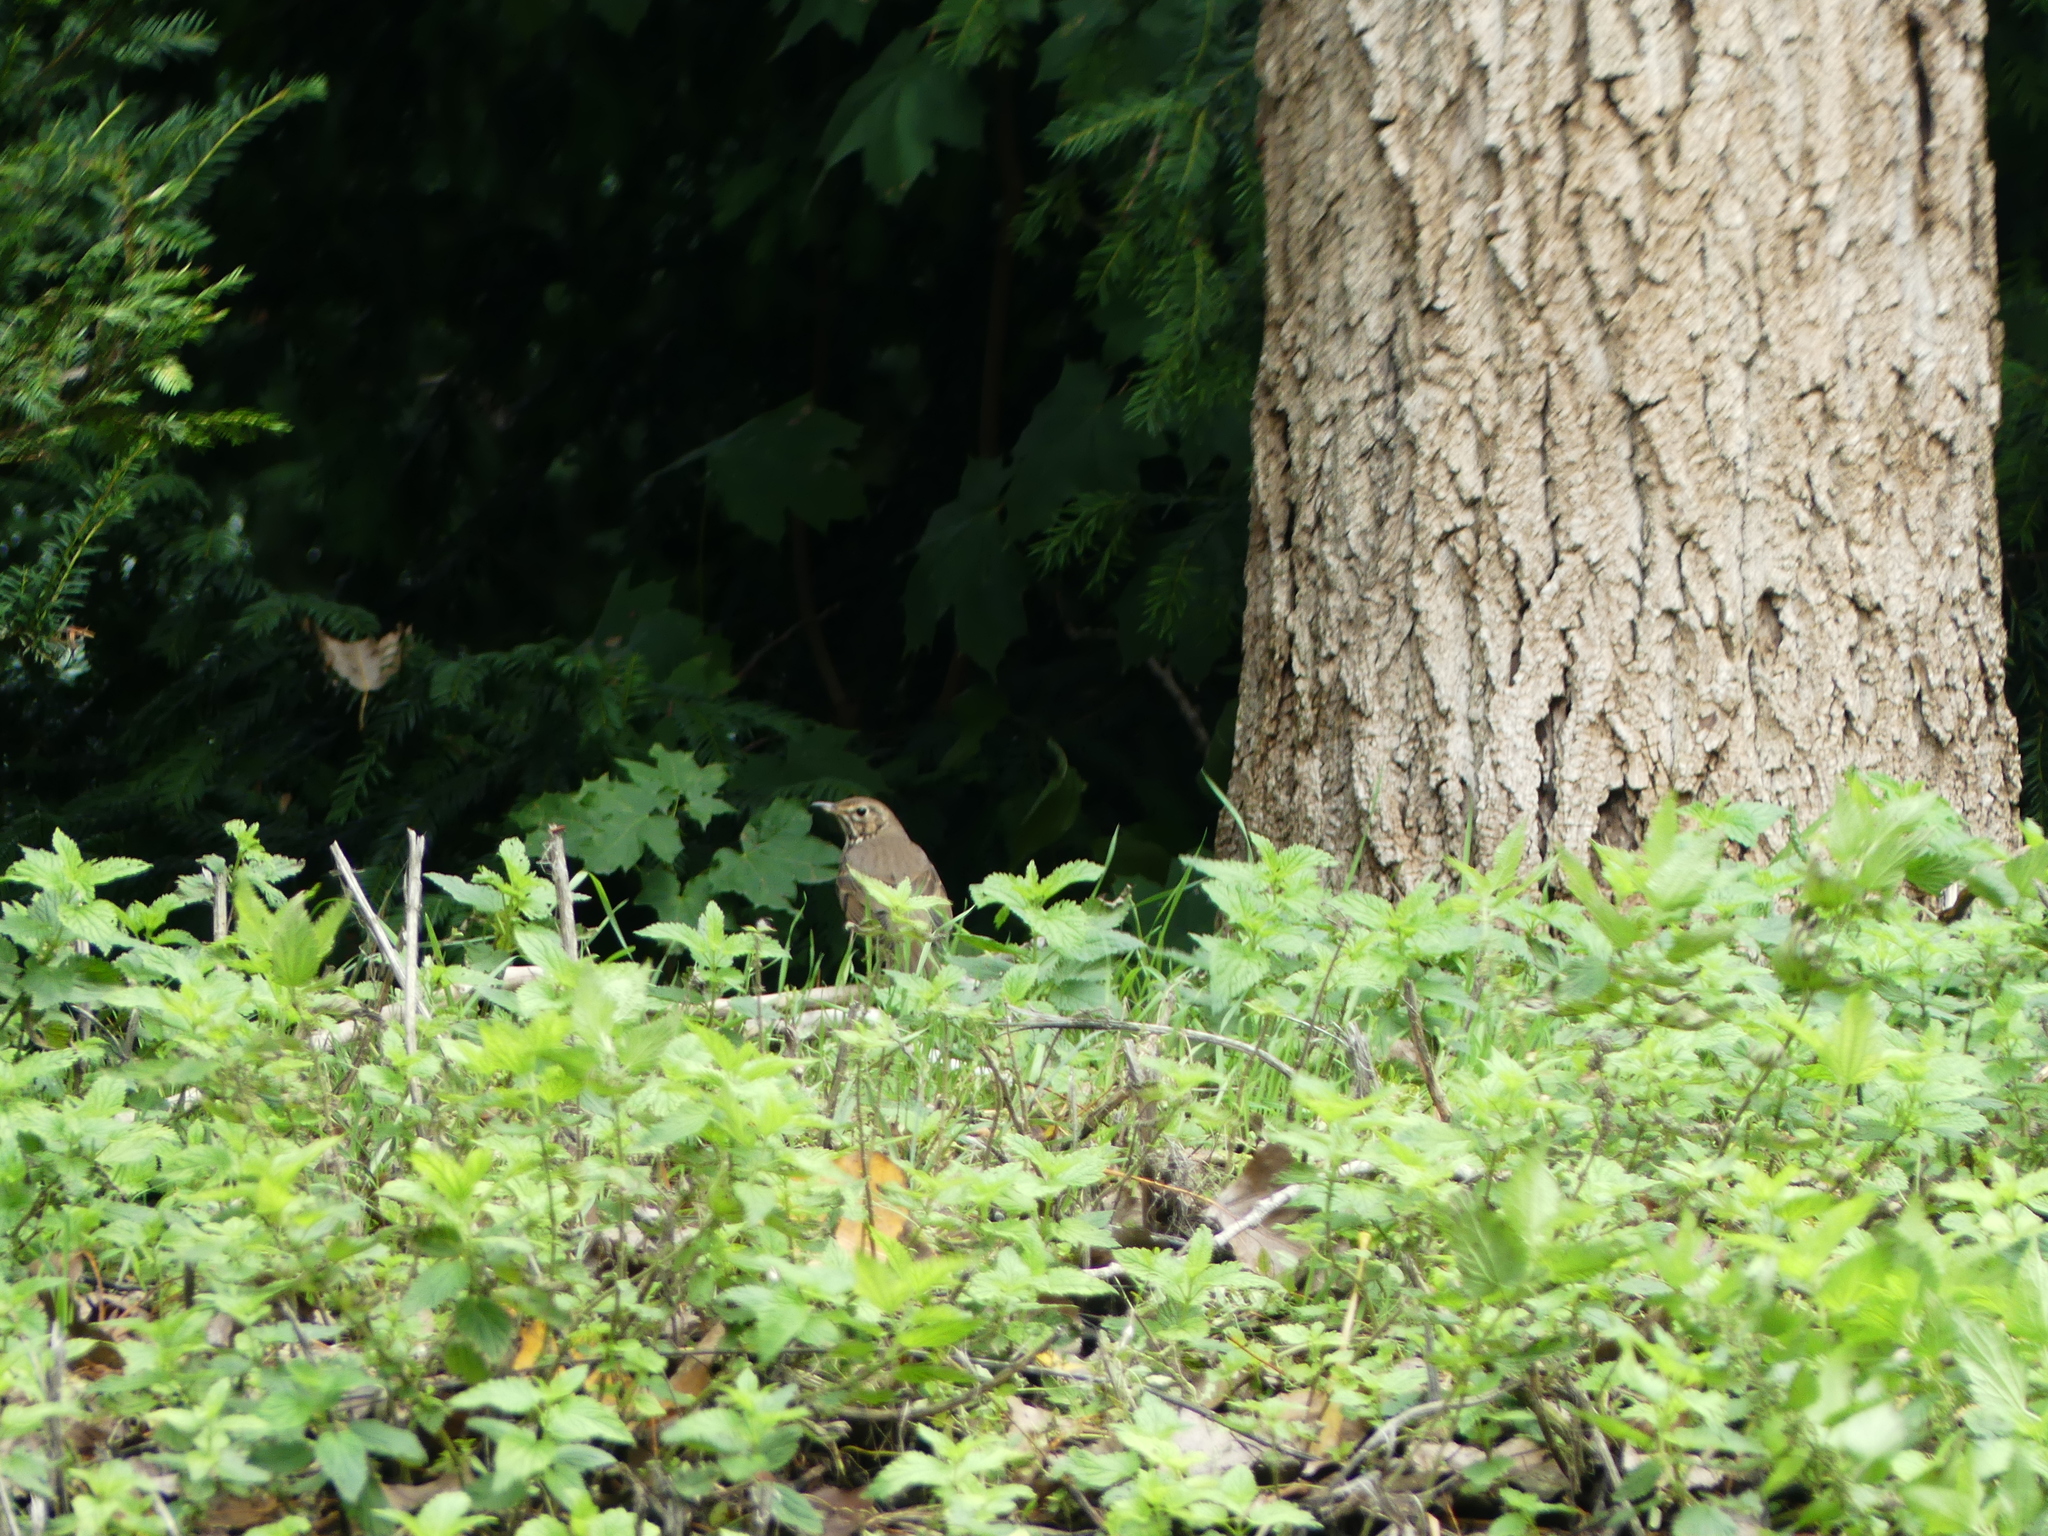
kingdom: Animalia
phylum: Chordata
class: Aves
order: Passeriformes
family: Turdidae
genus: Turdus
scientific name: Turdus philomelos
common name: Song thrush
